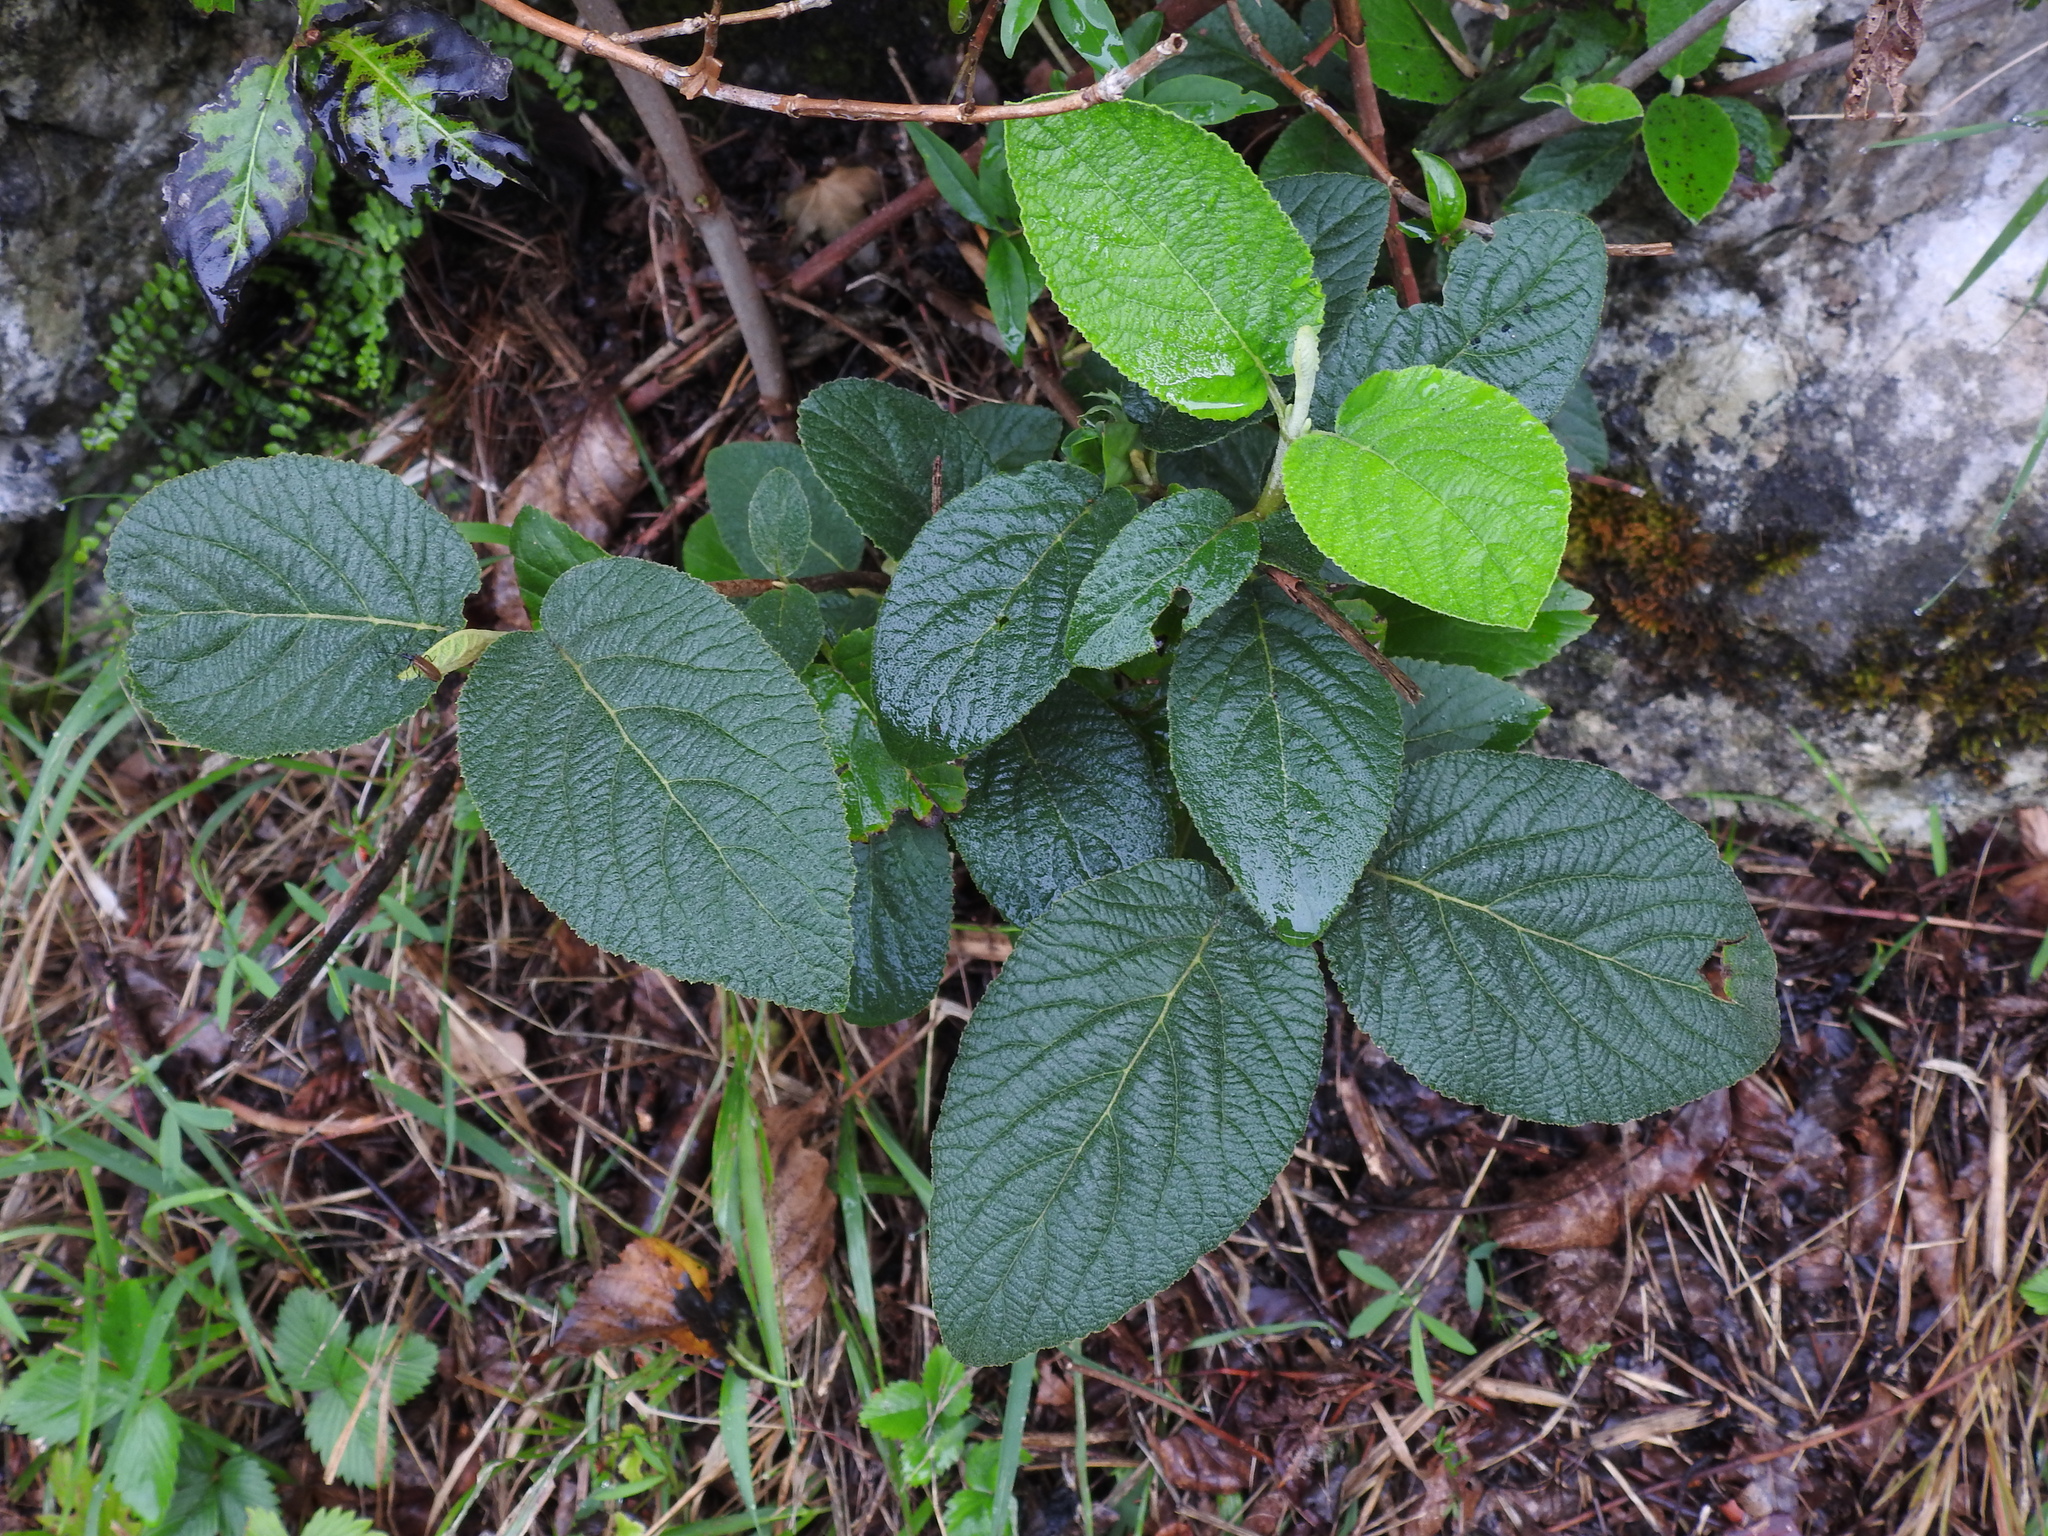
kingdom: Plantae
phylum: Tracheophyta
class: Magnoliopsida
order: Dipsacales
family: Viburnaceae
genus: Viburnum
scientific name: Viburnum lantana
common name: Wayfaring tree
